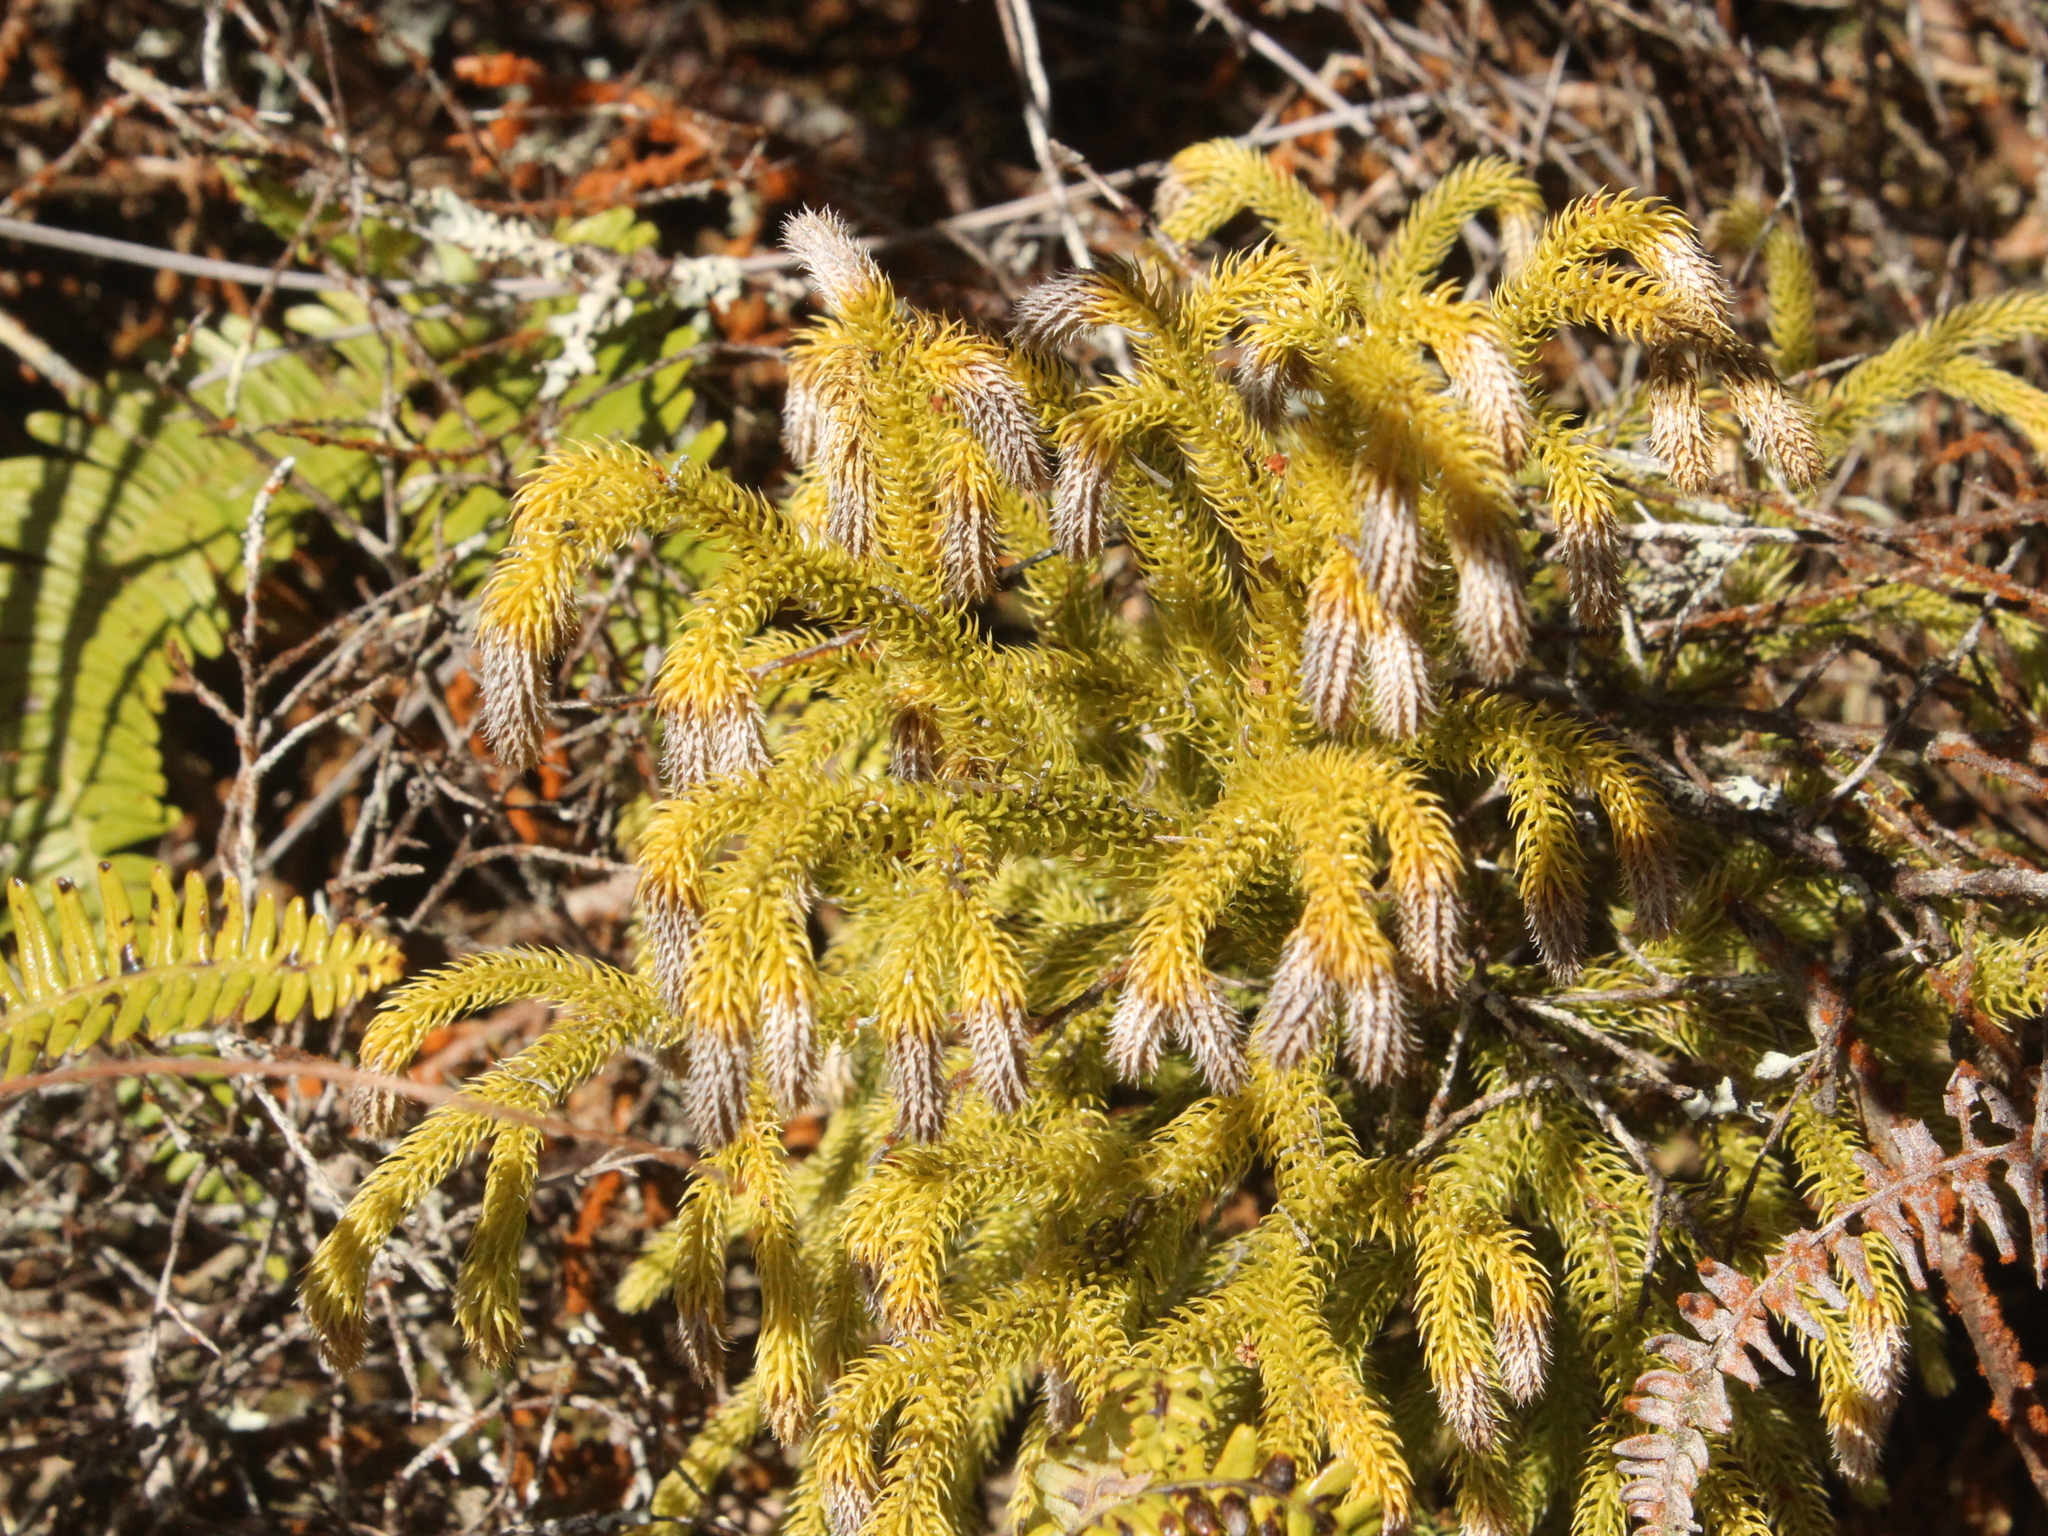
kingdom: Plantae
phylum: Tracheophyta
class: Lycopodiopsida
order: Lycopodiales
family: Lycopodiaceae
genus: Palhinhaea
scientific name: Palhinhaea cernua
